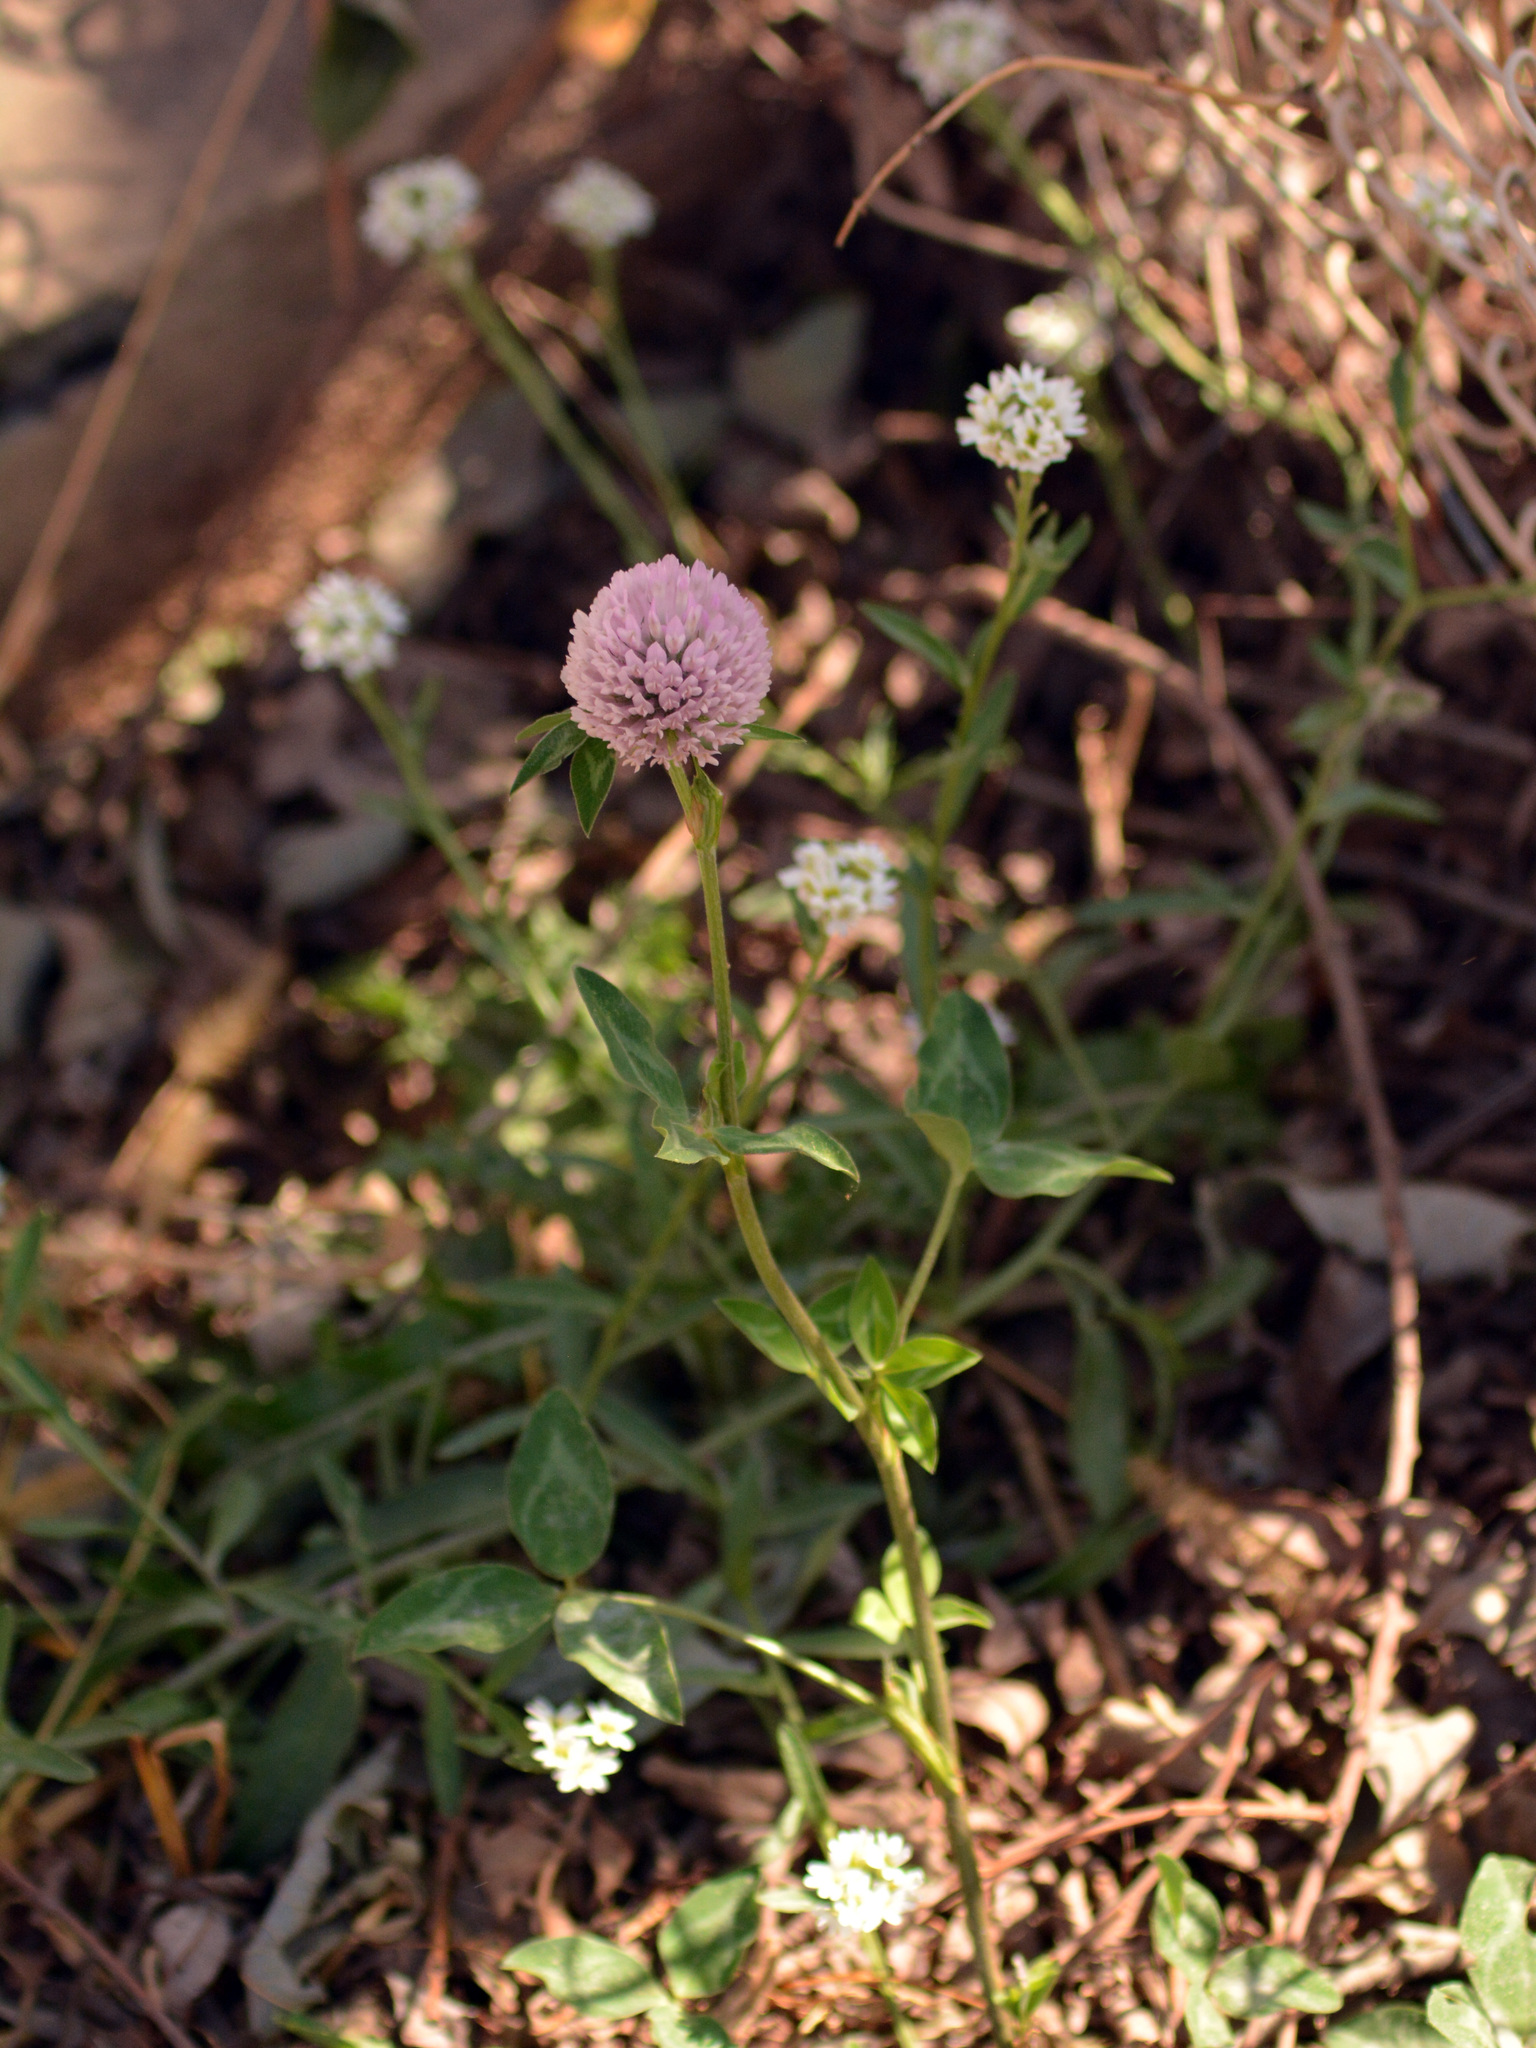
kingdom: Plantae
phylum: Tracheophyta
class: Magnoliopsida
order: Fabales
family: Fabaceae
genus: Trifolium
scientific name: Trifolium pratense
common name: Red clover
